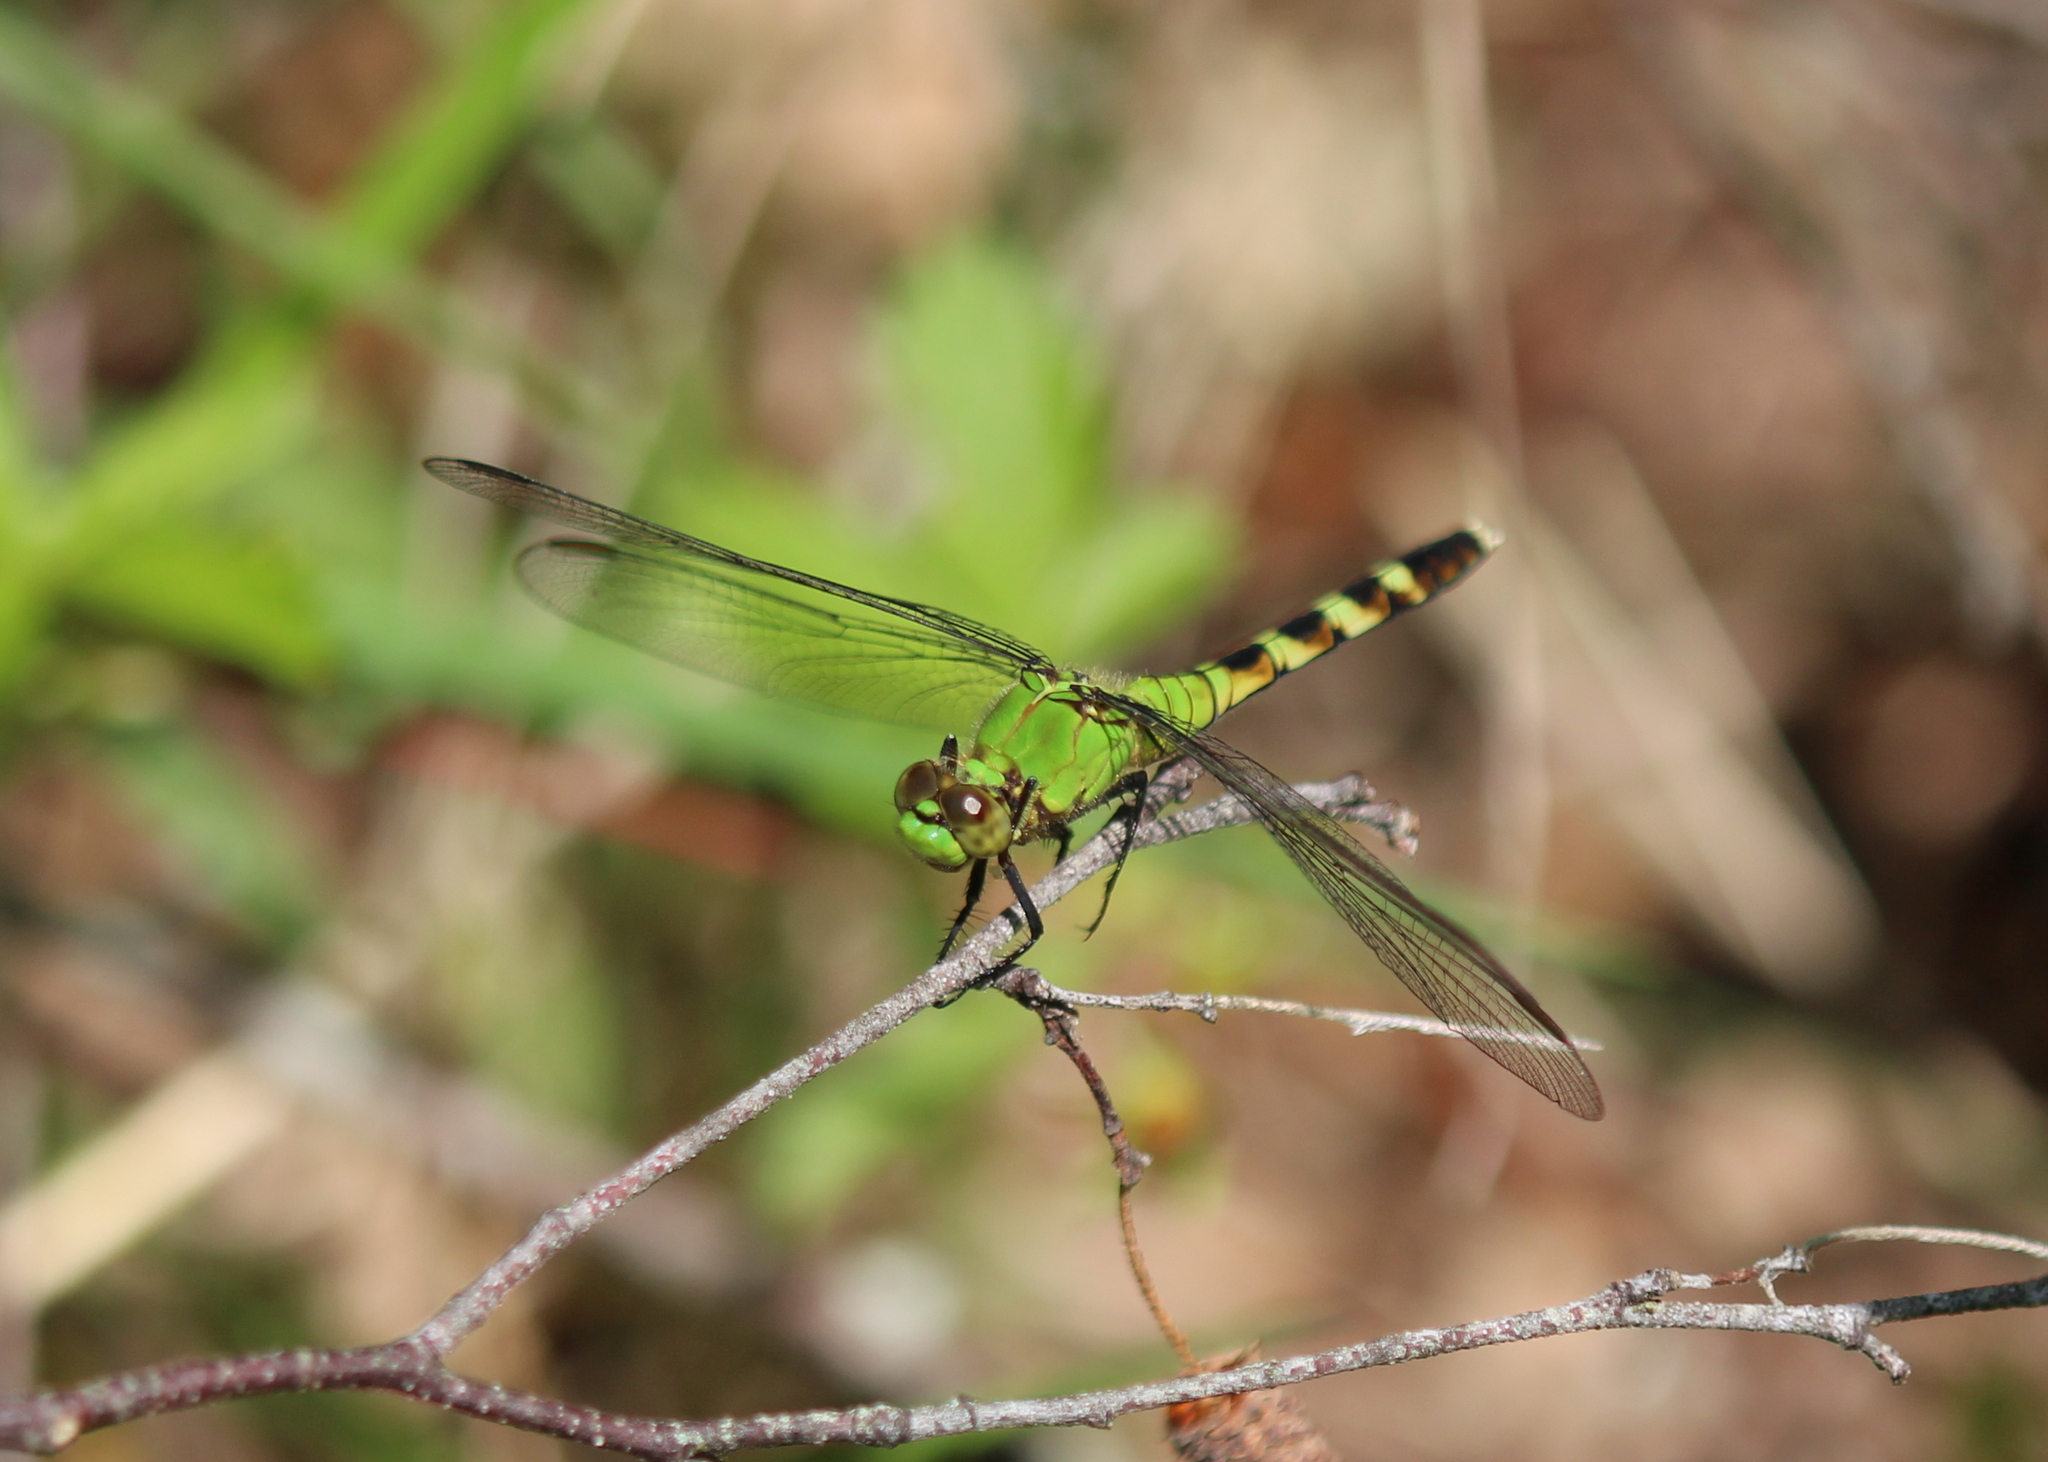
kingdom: Animalia
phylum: Arthropoda
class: Insecta
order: Odonata
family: Libellulidae
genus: Erythemis
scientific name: Erythemis simplicicollis
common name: Eastern pondhawk
